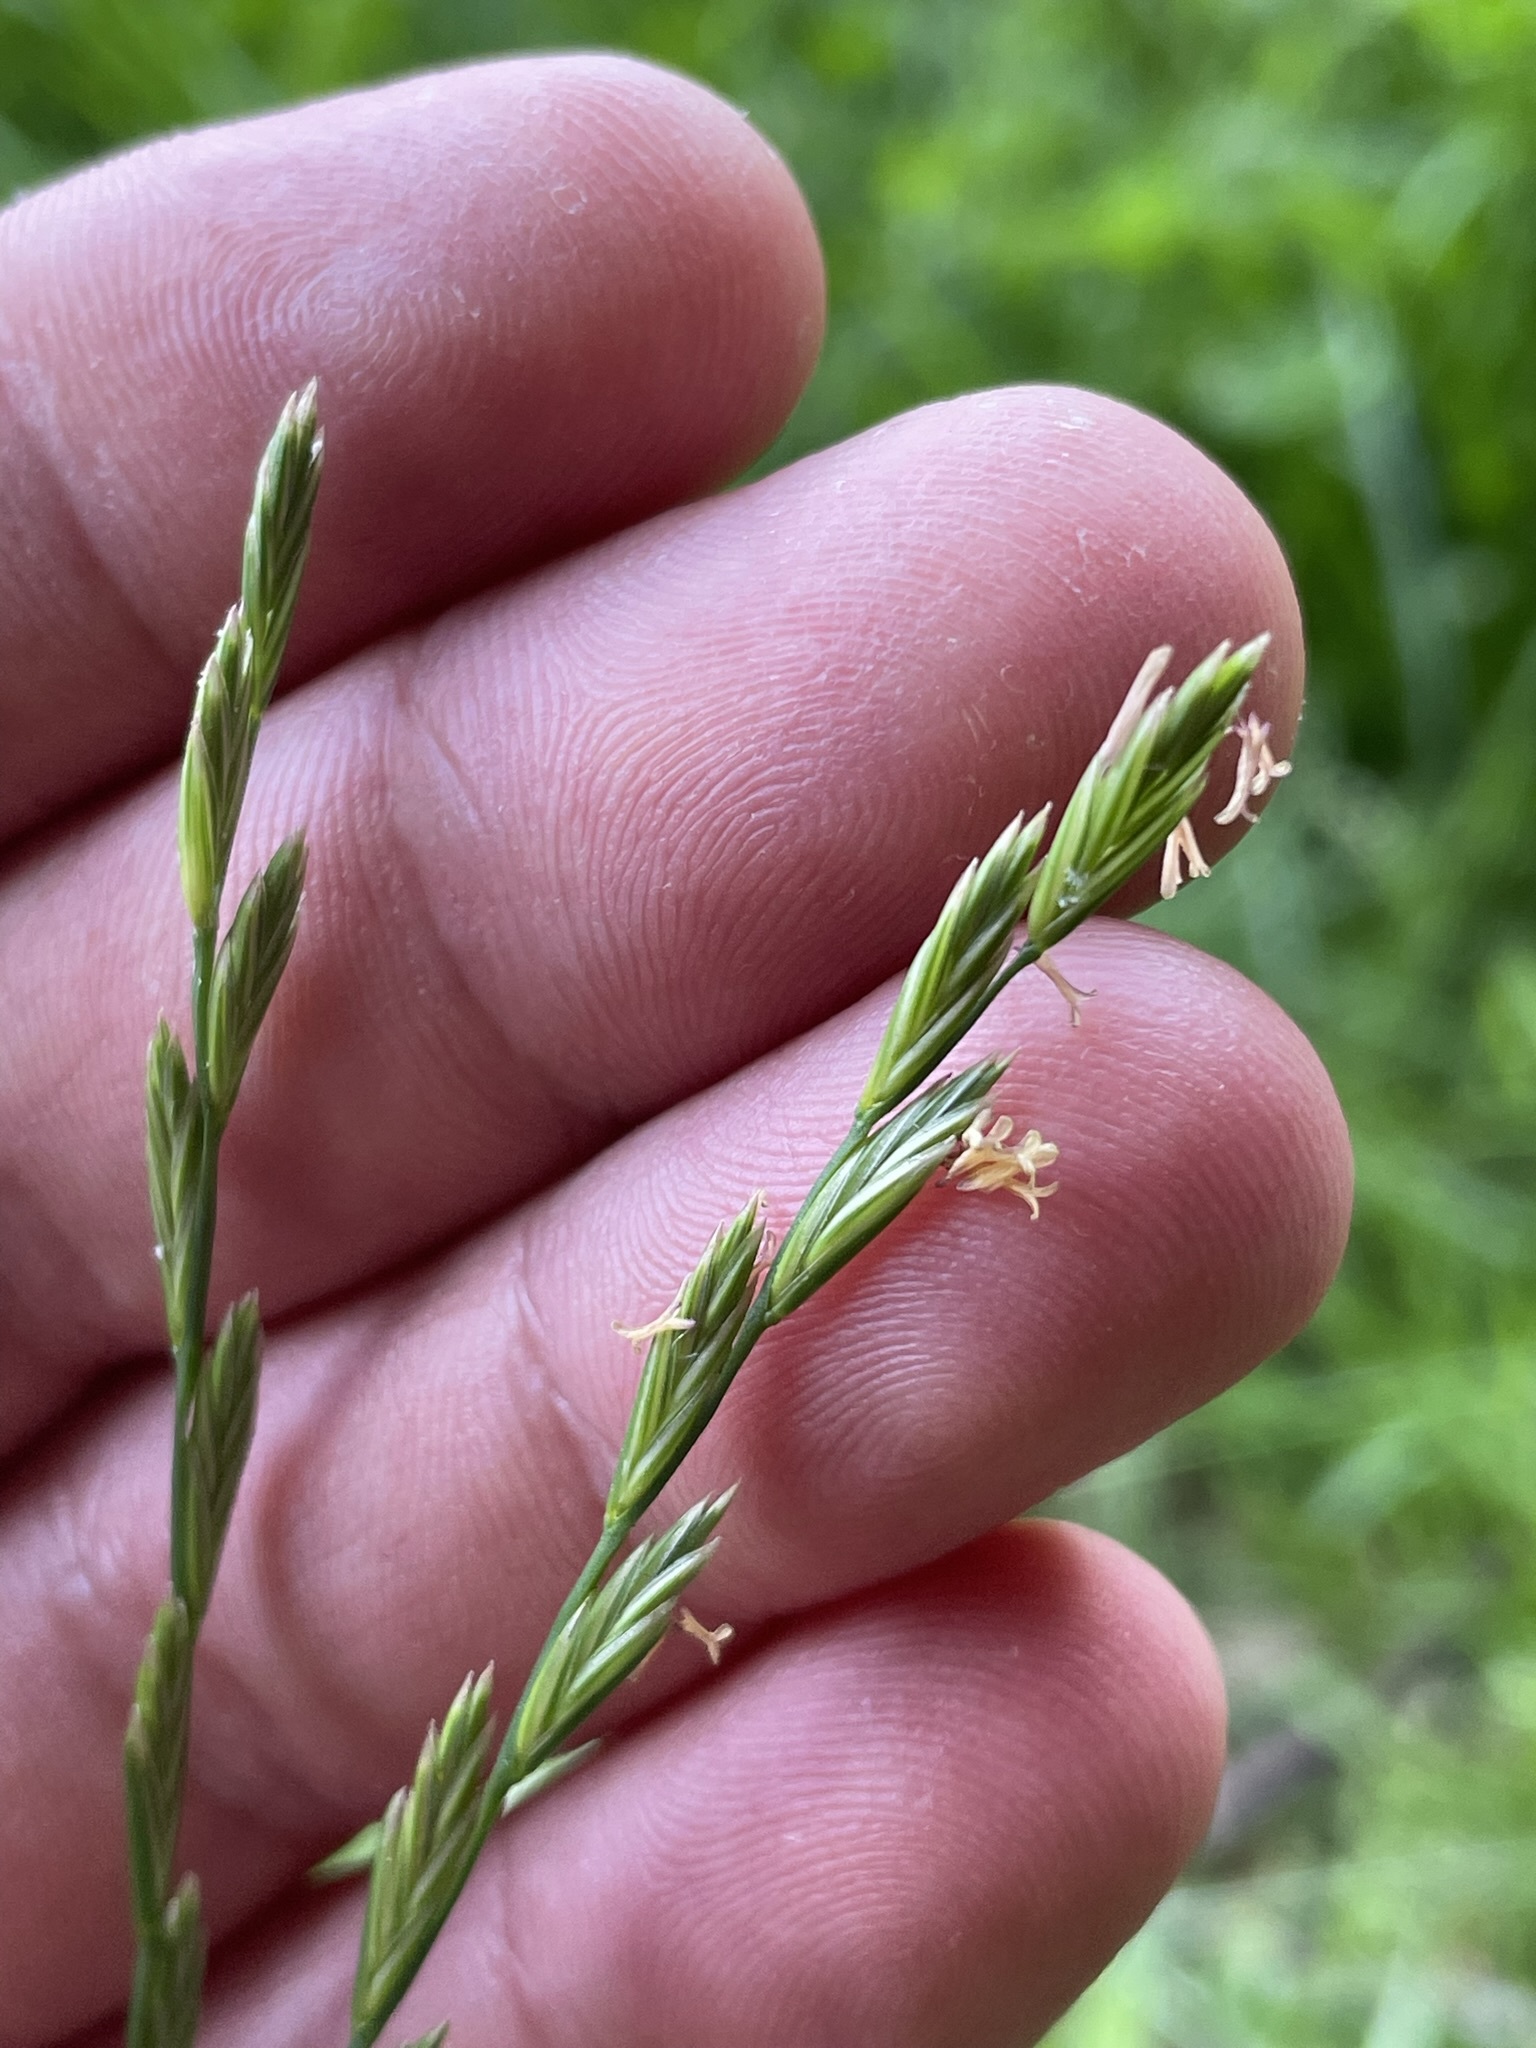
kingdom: Plantae
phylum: Tracheophyta
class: Liliopsida
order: Poales
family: Poaceae
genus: Lolium
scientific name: Lolium perenne
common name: Perennial ryegrass
